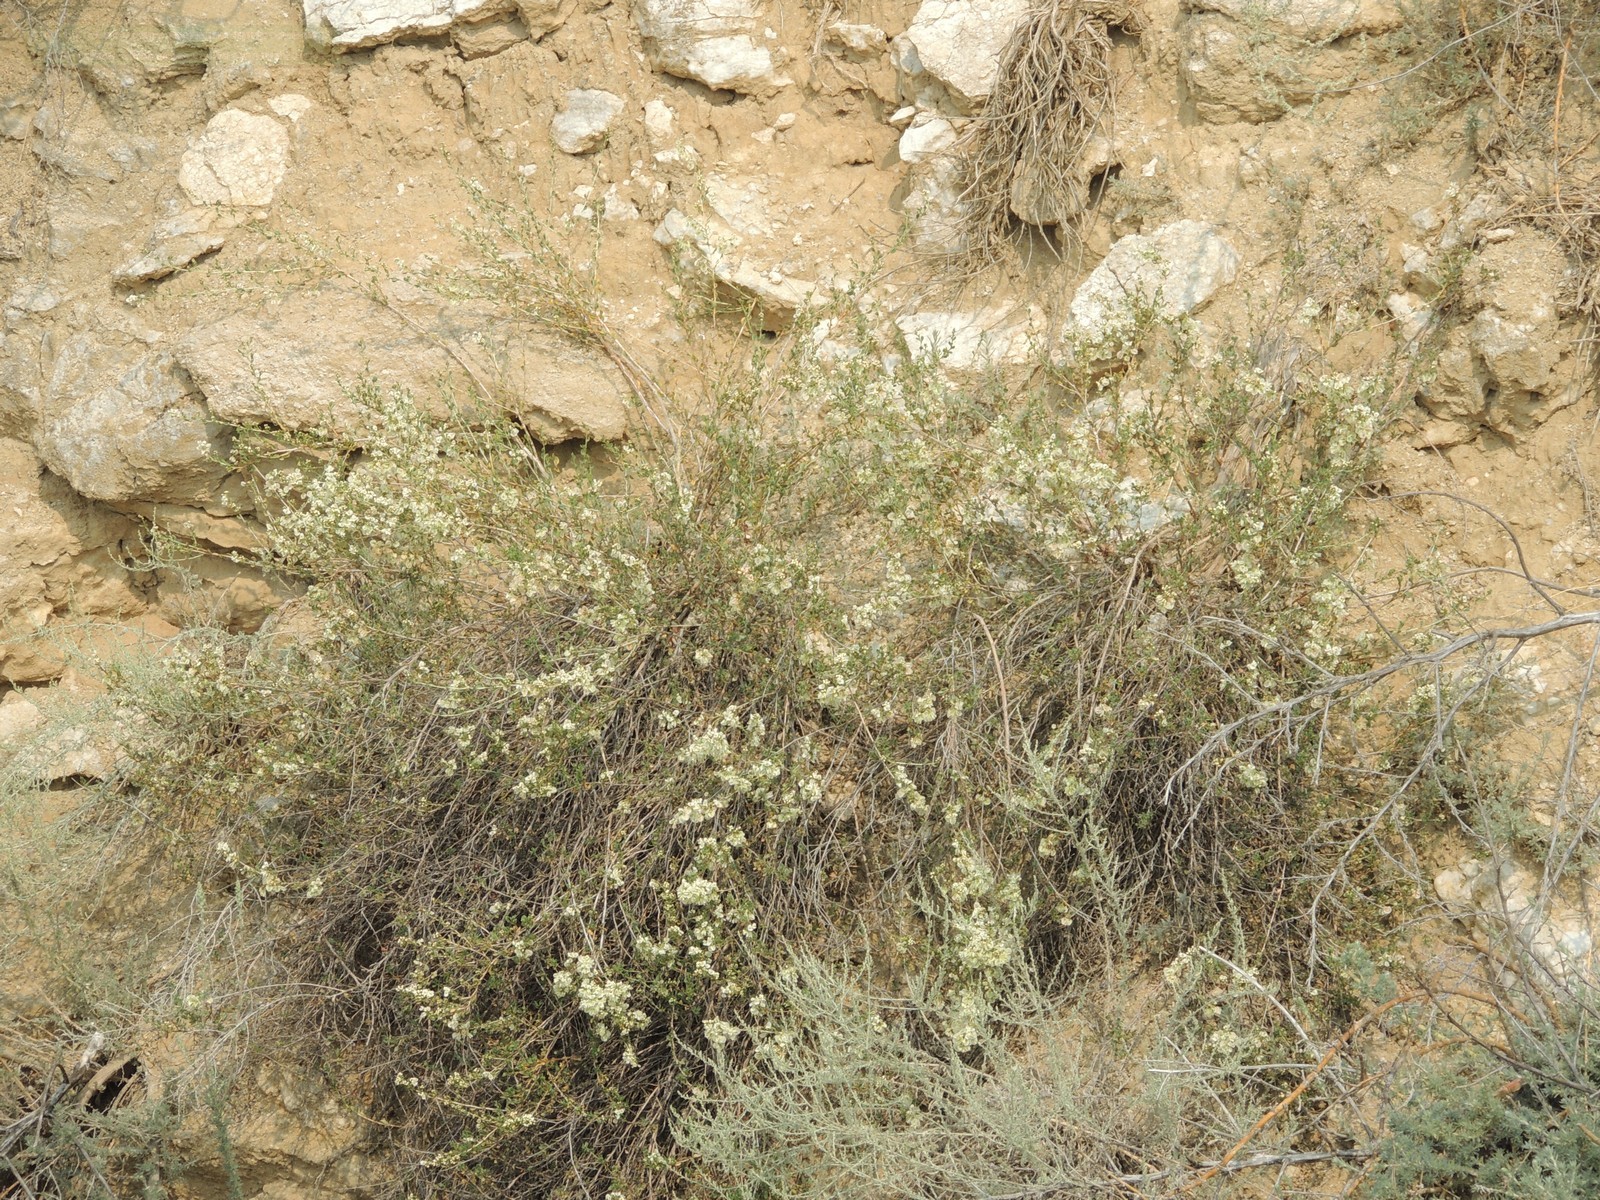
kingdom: Plantae
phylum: Tracheophyta
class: Magnoliopsida
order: Caryophyllales
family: Polygonaceae
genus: Atraphaxis
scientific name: Atraphaxis replicata
